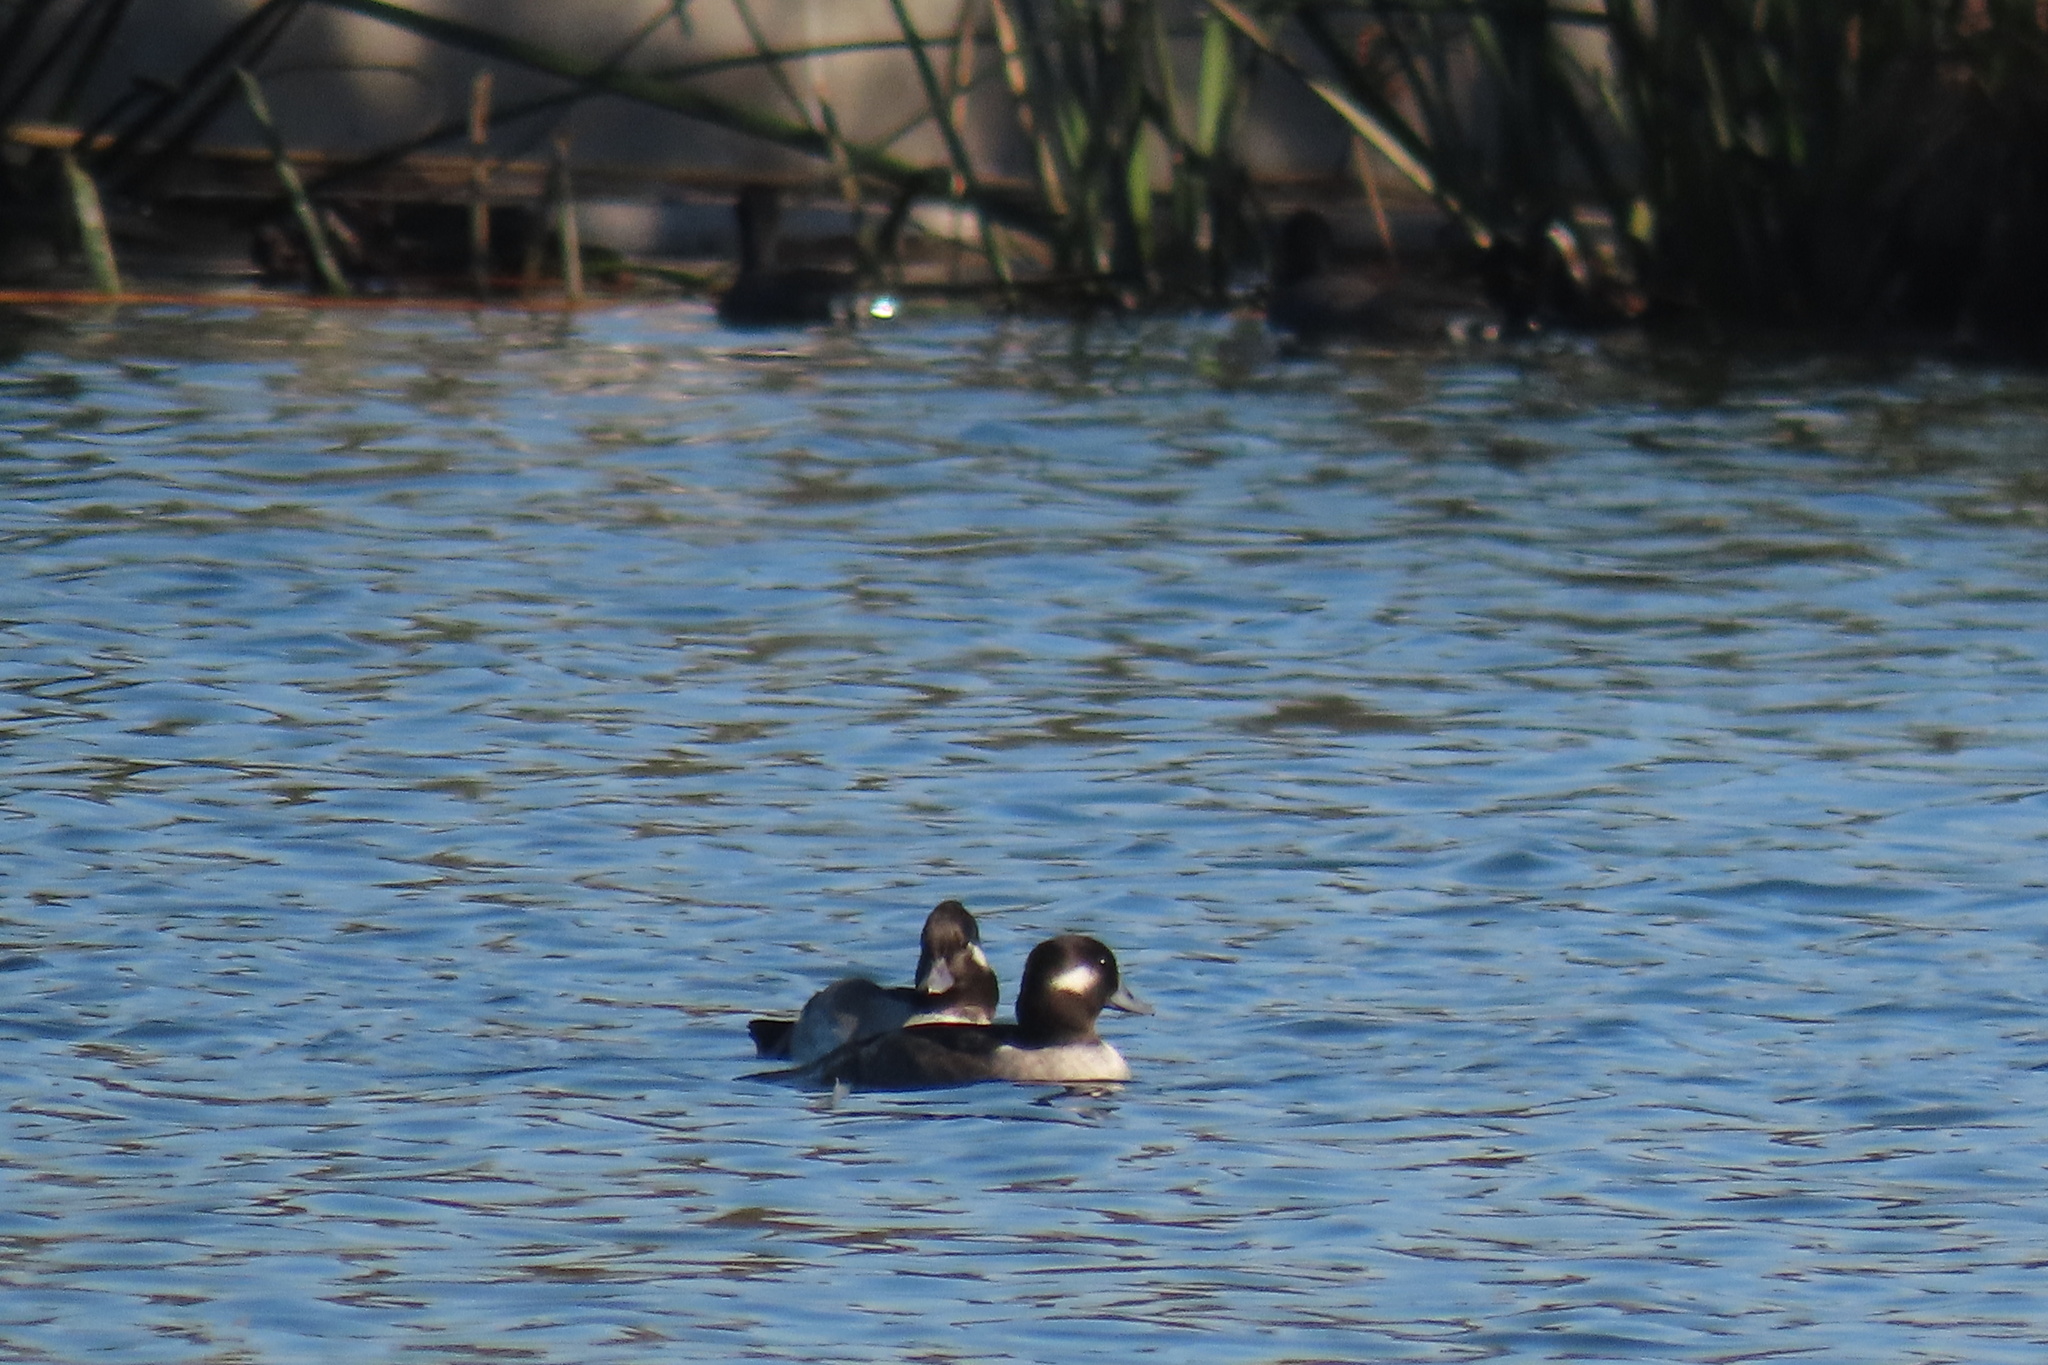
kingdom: Animalia
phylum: Chordata
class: Aves
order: Anseriformes
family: Anatidae
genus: Bucephala
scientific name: Bucephala albeola
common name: Bufflehead
